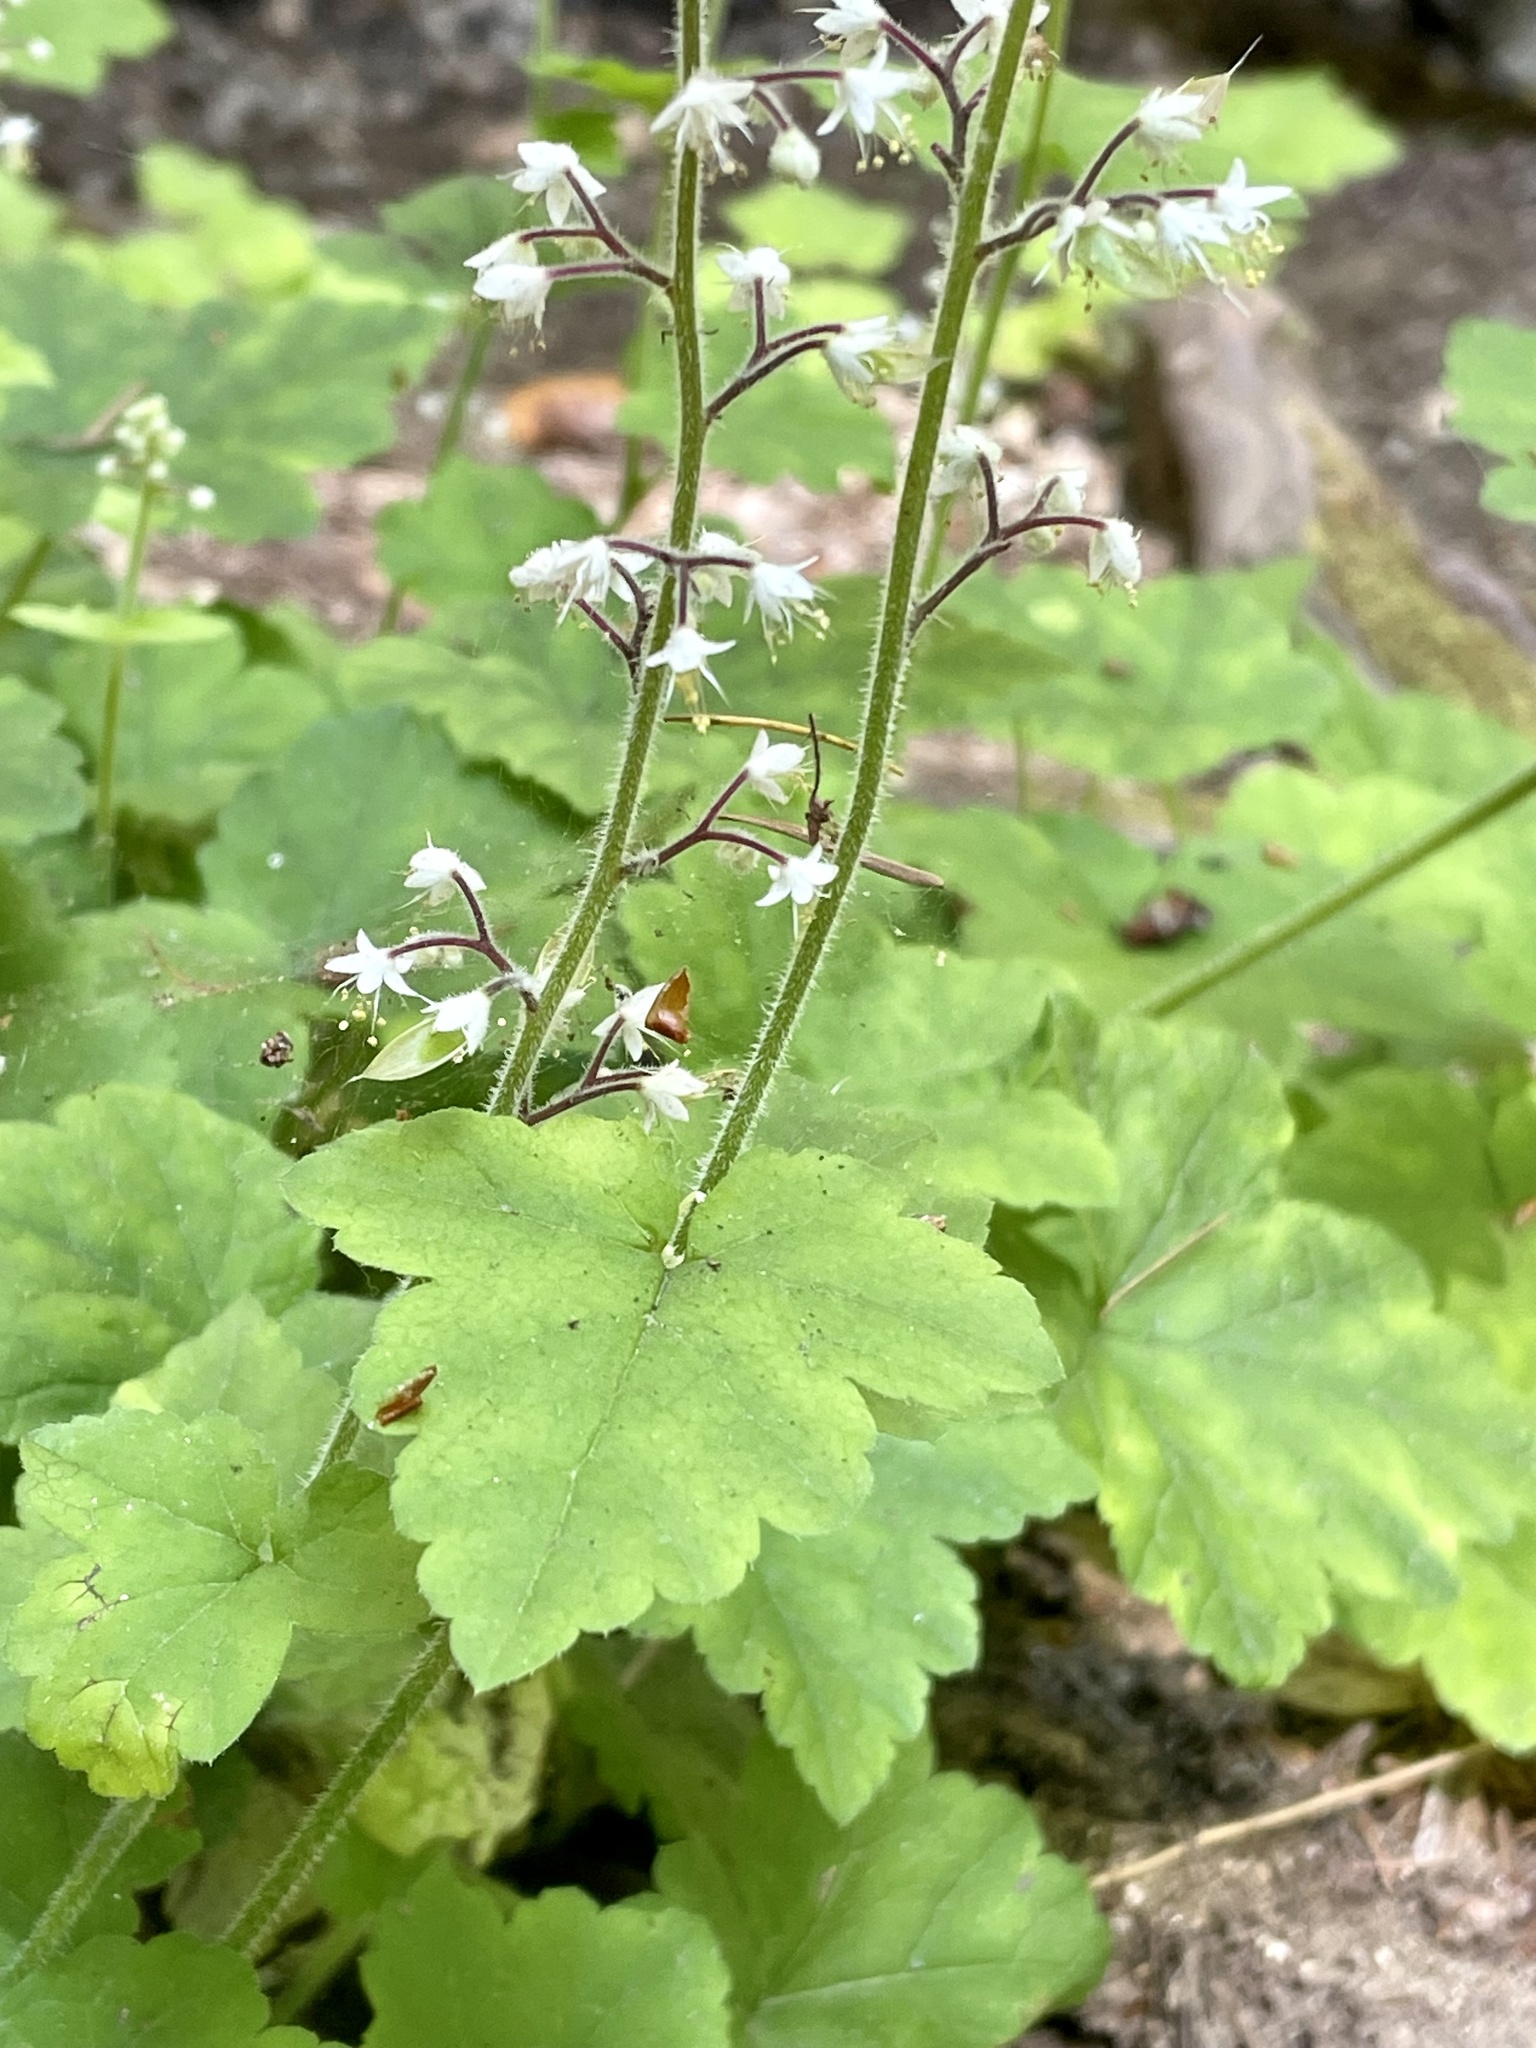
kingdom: Plantae
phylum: Tracheophyta
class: Magnoliopsida
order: Saxifragales
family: Saxifragaceae
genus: Tiarella
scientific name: Tiarella trifoliata
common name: Sugar-scoop
